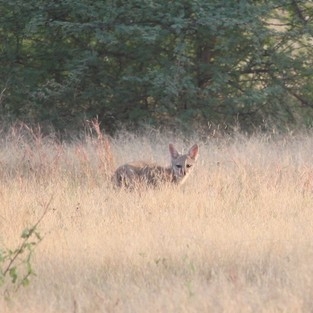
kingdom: Animalia
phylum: Chordata
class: Mammalia
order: Carnivora
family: Canidae
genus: Vulpes
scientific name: Vulpes bengalensis
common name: Bengal fox
